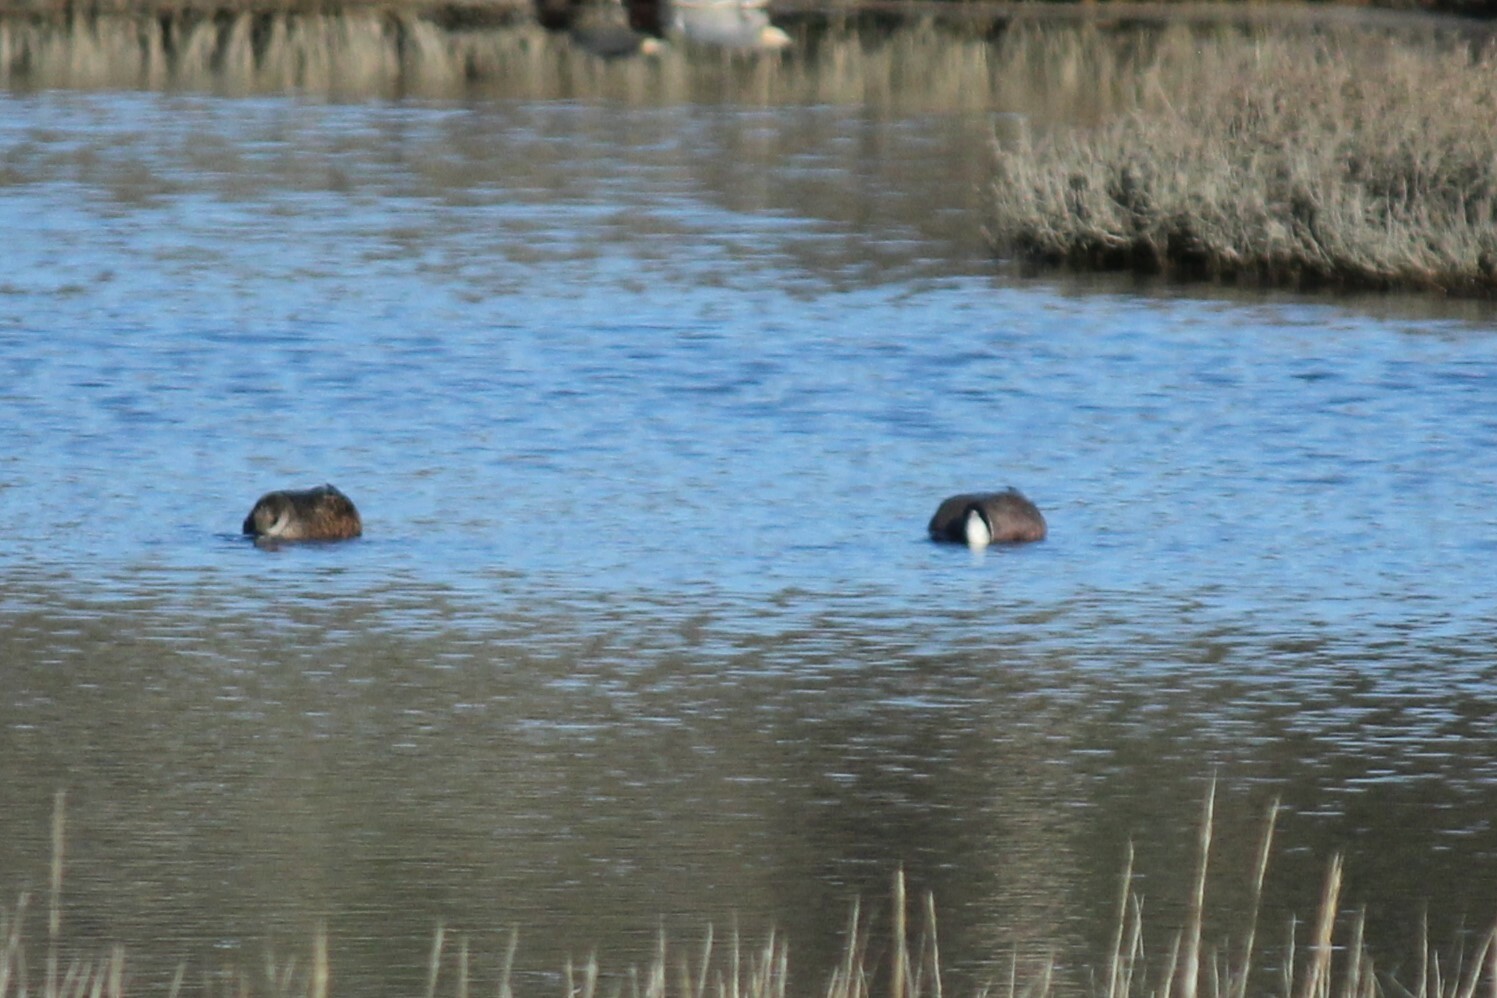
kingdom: Animalia
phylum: Chordata
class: Aves
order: Anseriformes
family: Anatidae
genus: Mareca
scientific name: Mareca americana
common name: American wigeon
